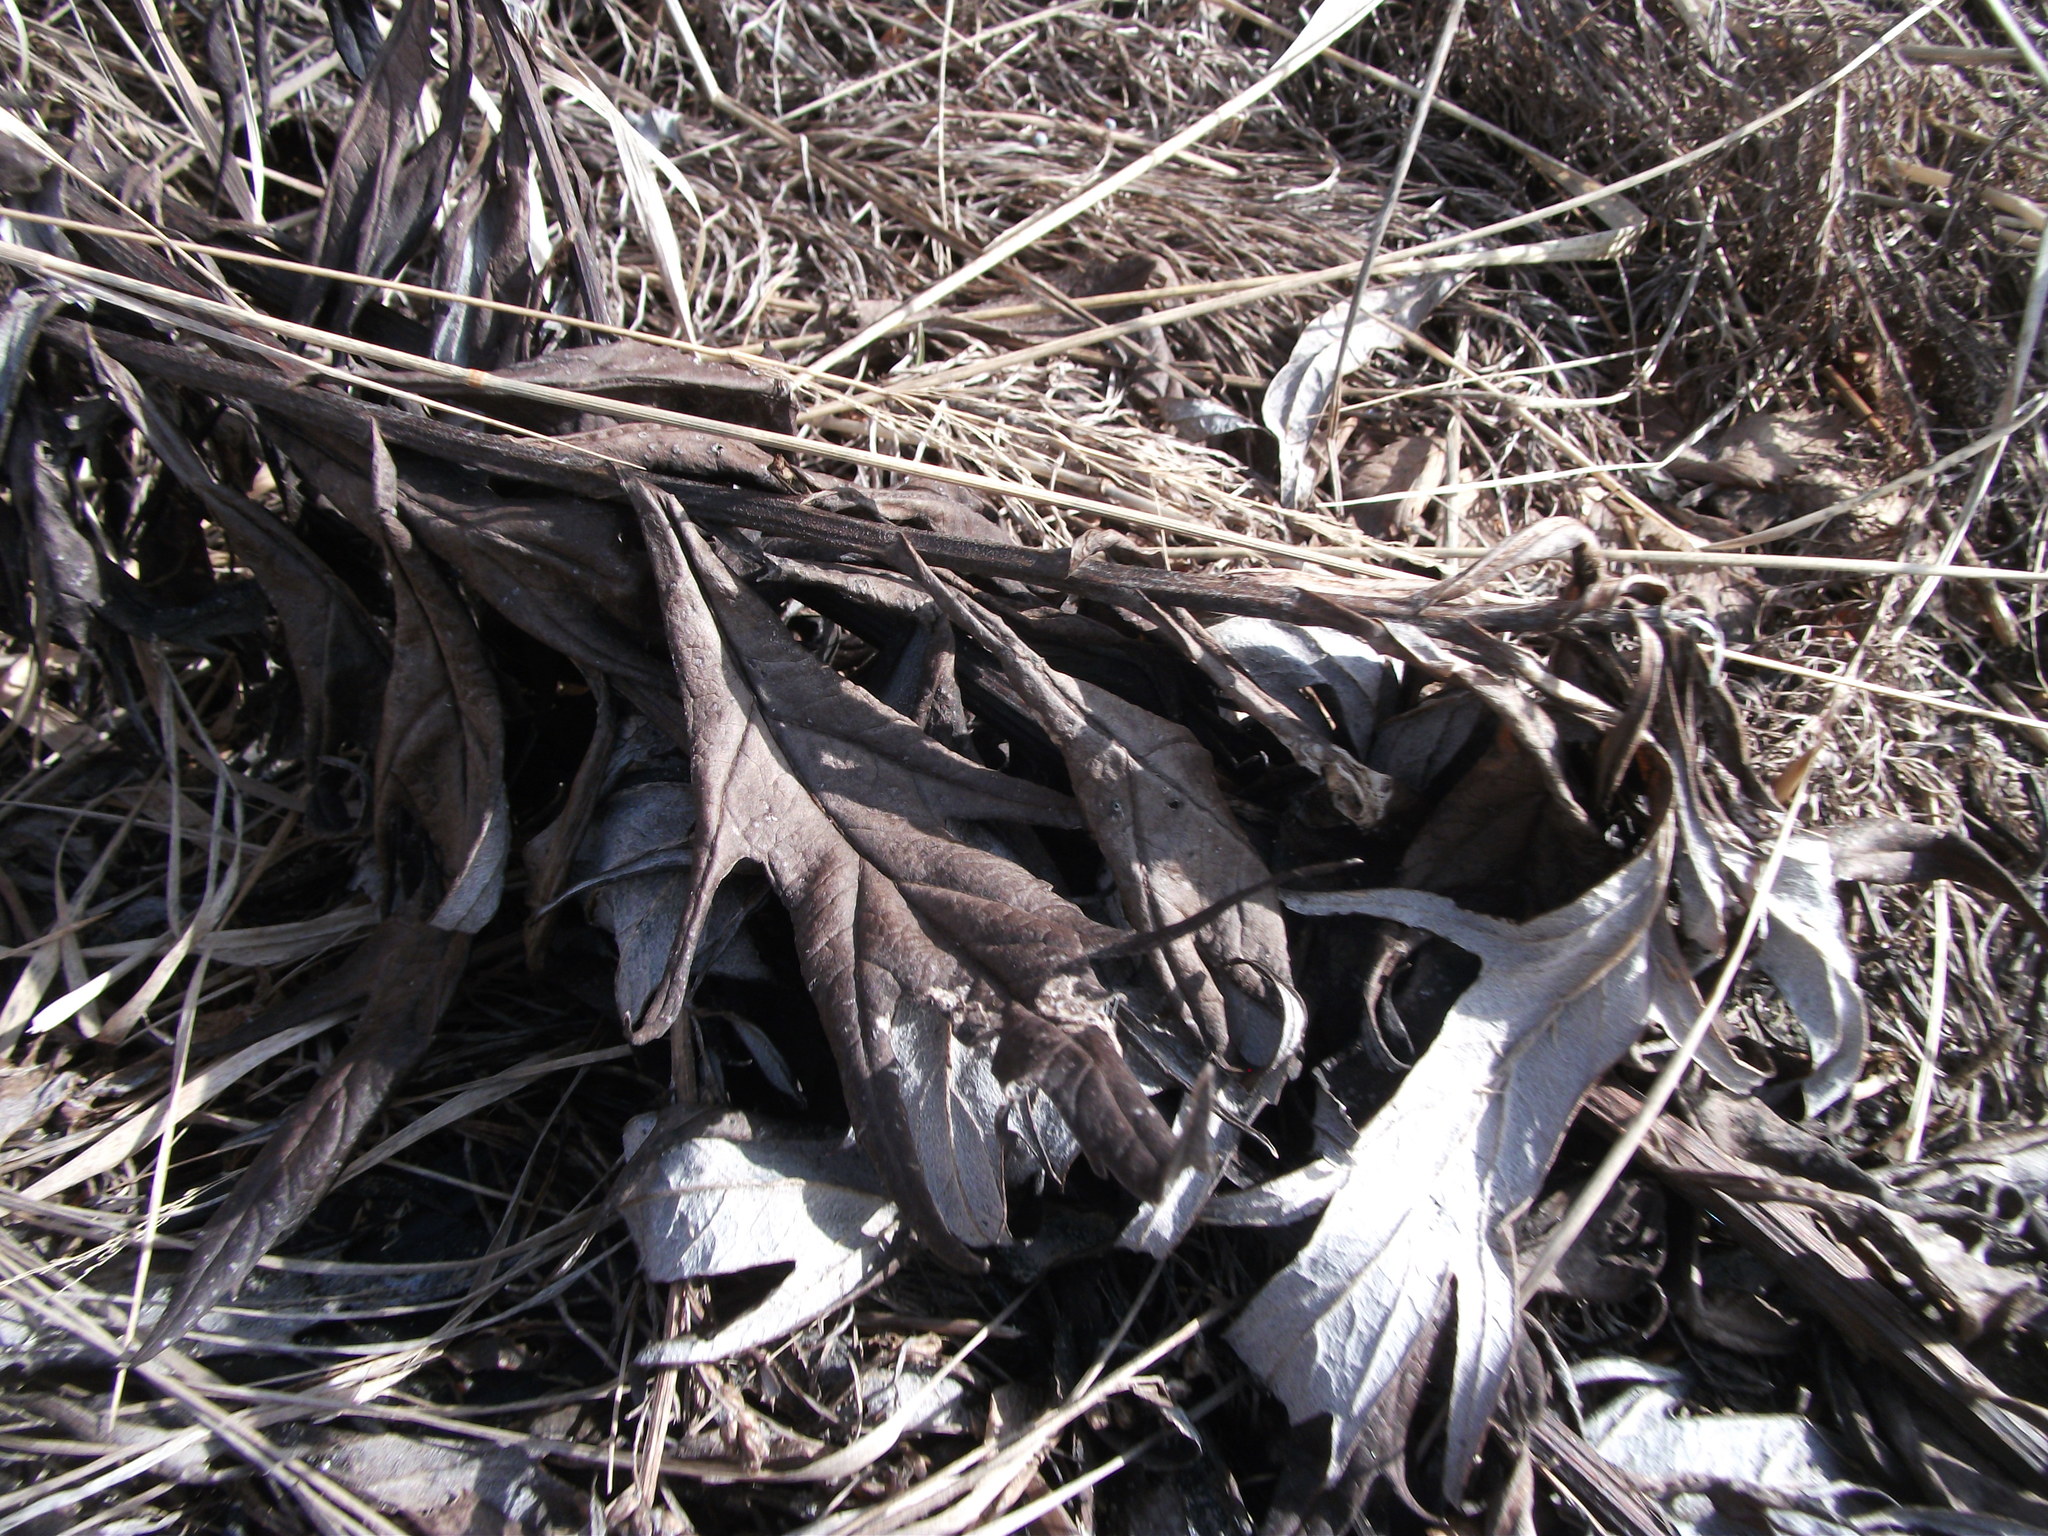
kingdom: Plantae
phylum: Tracheophyta
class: Magnoliopsida
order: Asterales
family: Asteraceae
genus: Artemisia
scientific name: Artemisia tilesii
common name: Aleutian mugwort
